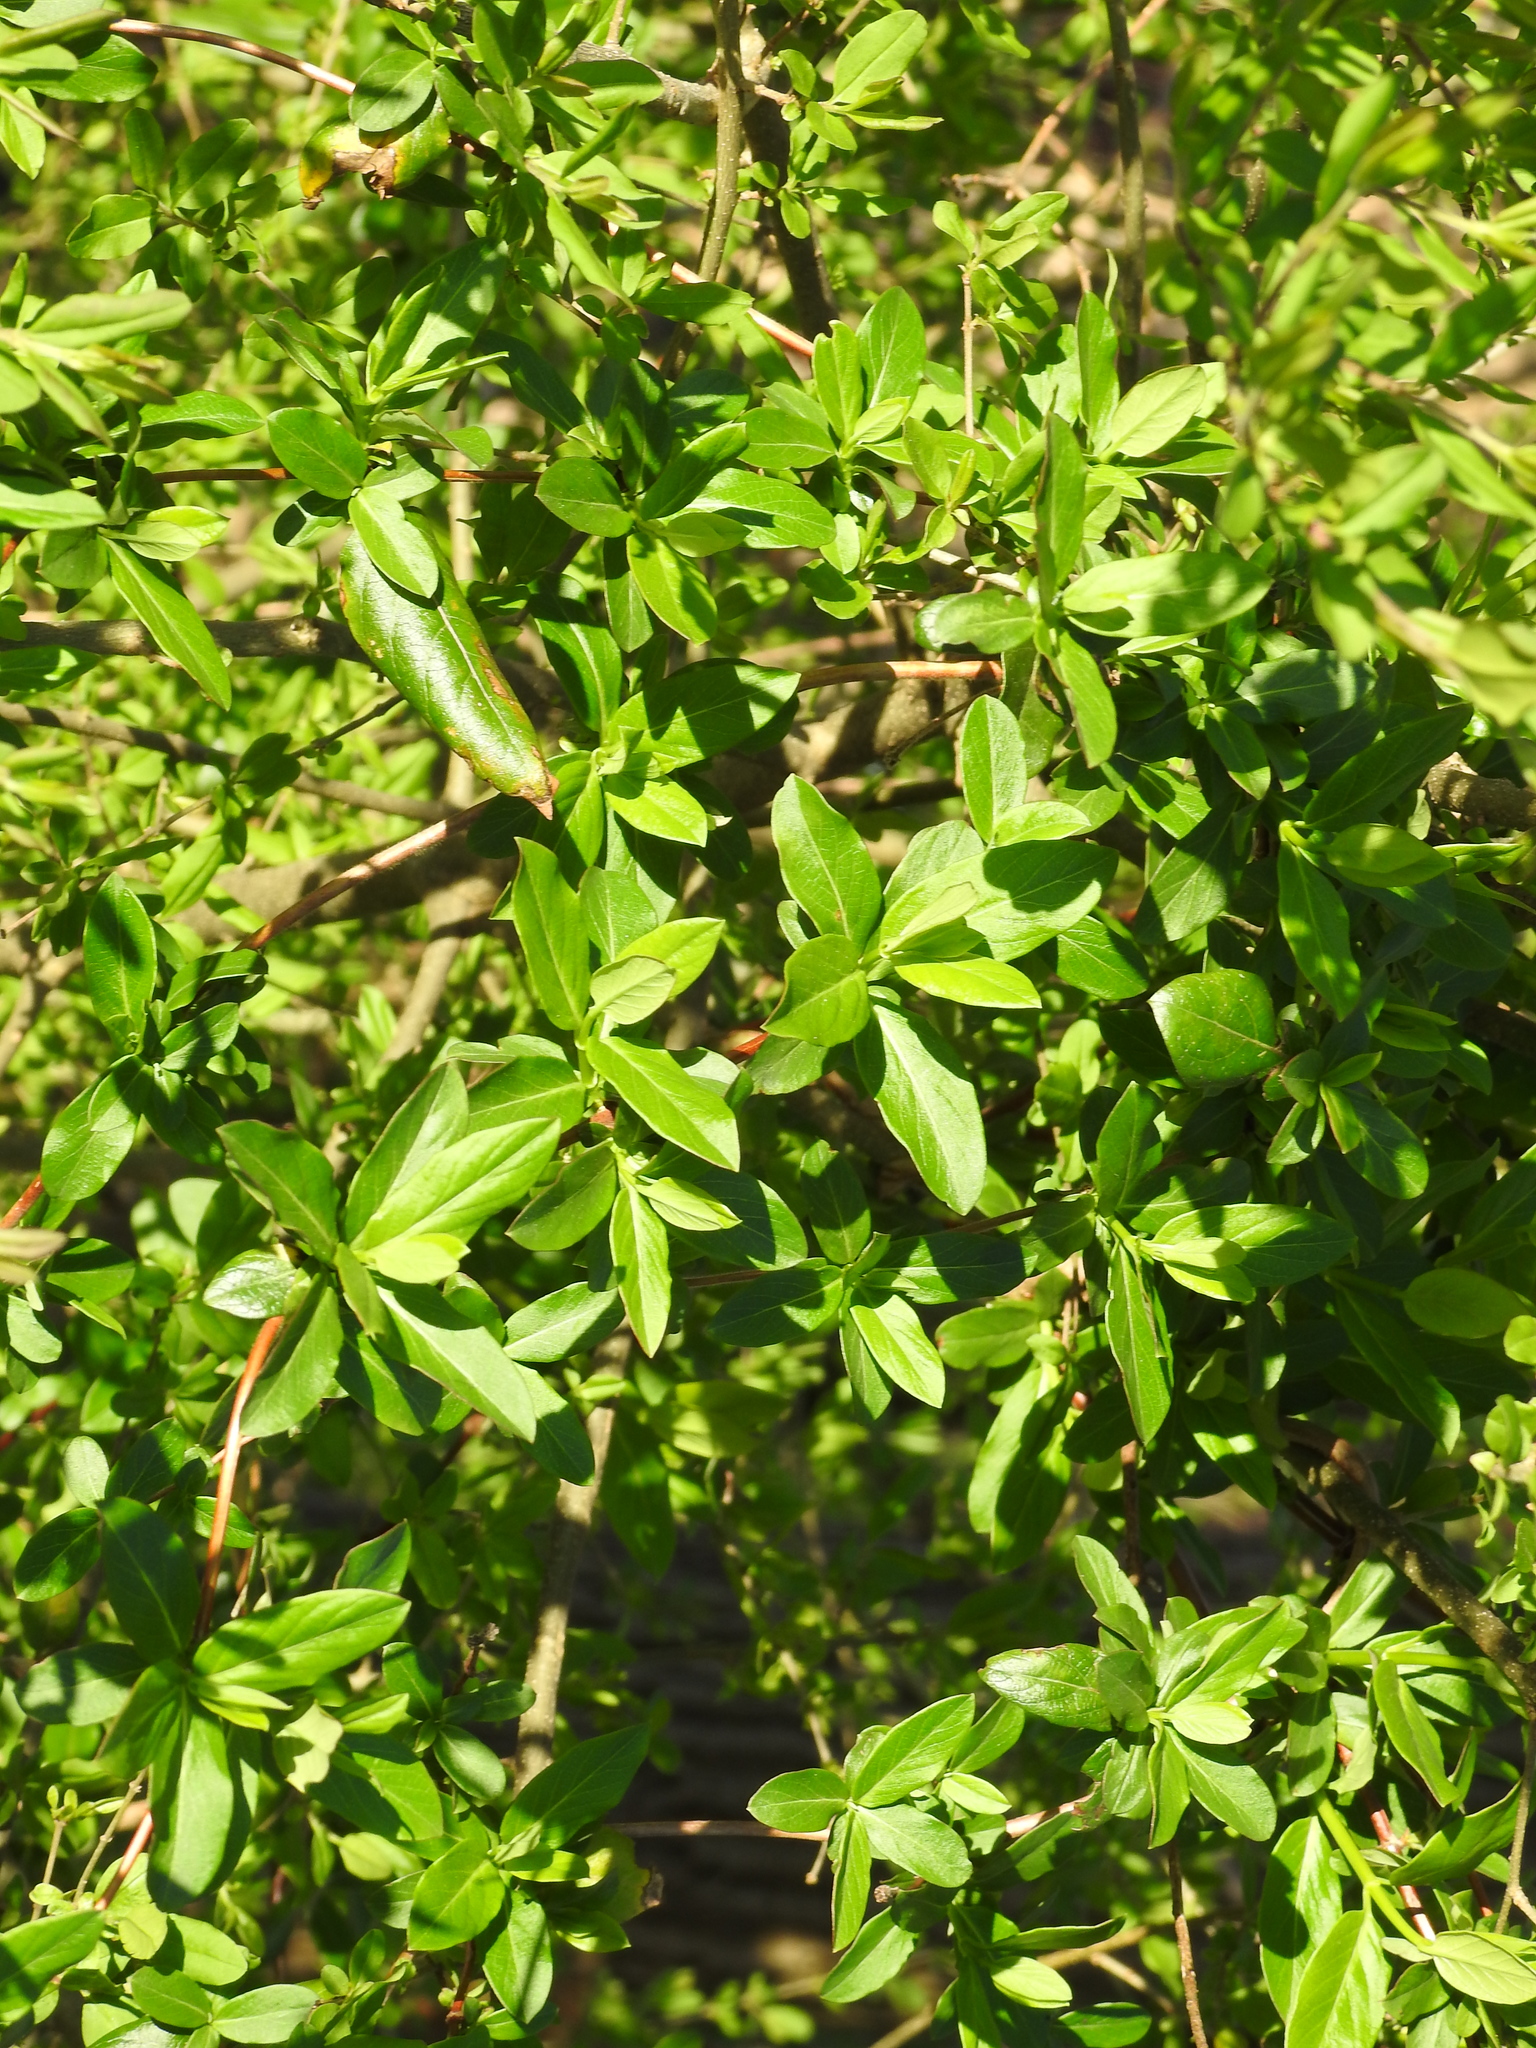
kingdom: Plantae
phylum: Tracheophyta
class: Magnoliopsida
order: Lamiales
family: Oleaceae
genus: Ligustrum
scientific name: Ligustrum sinense
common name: Chinese privet
